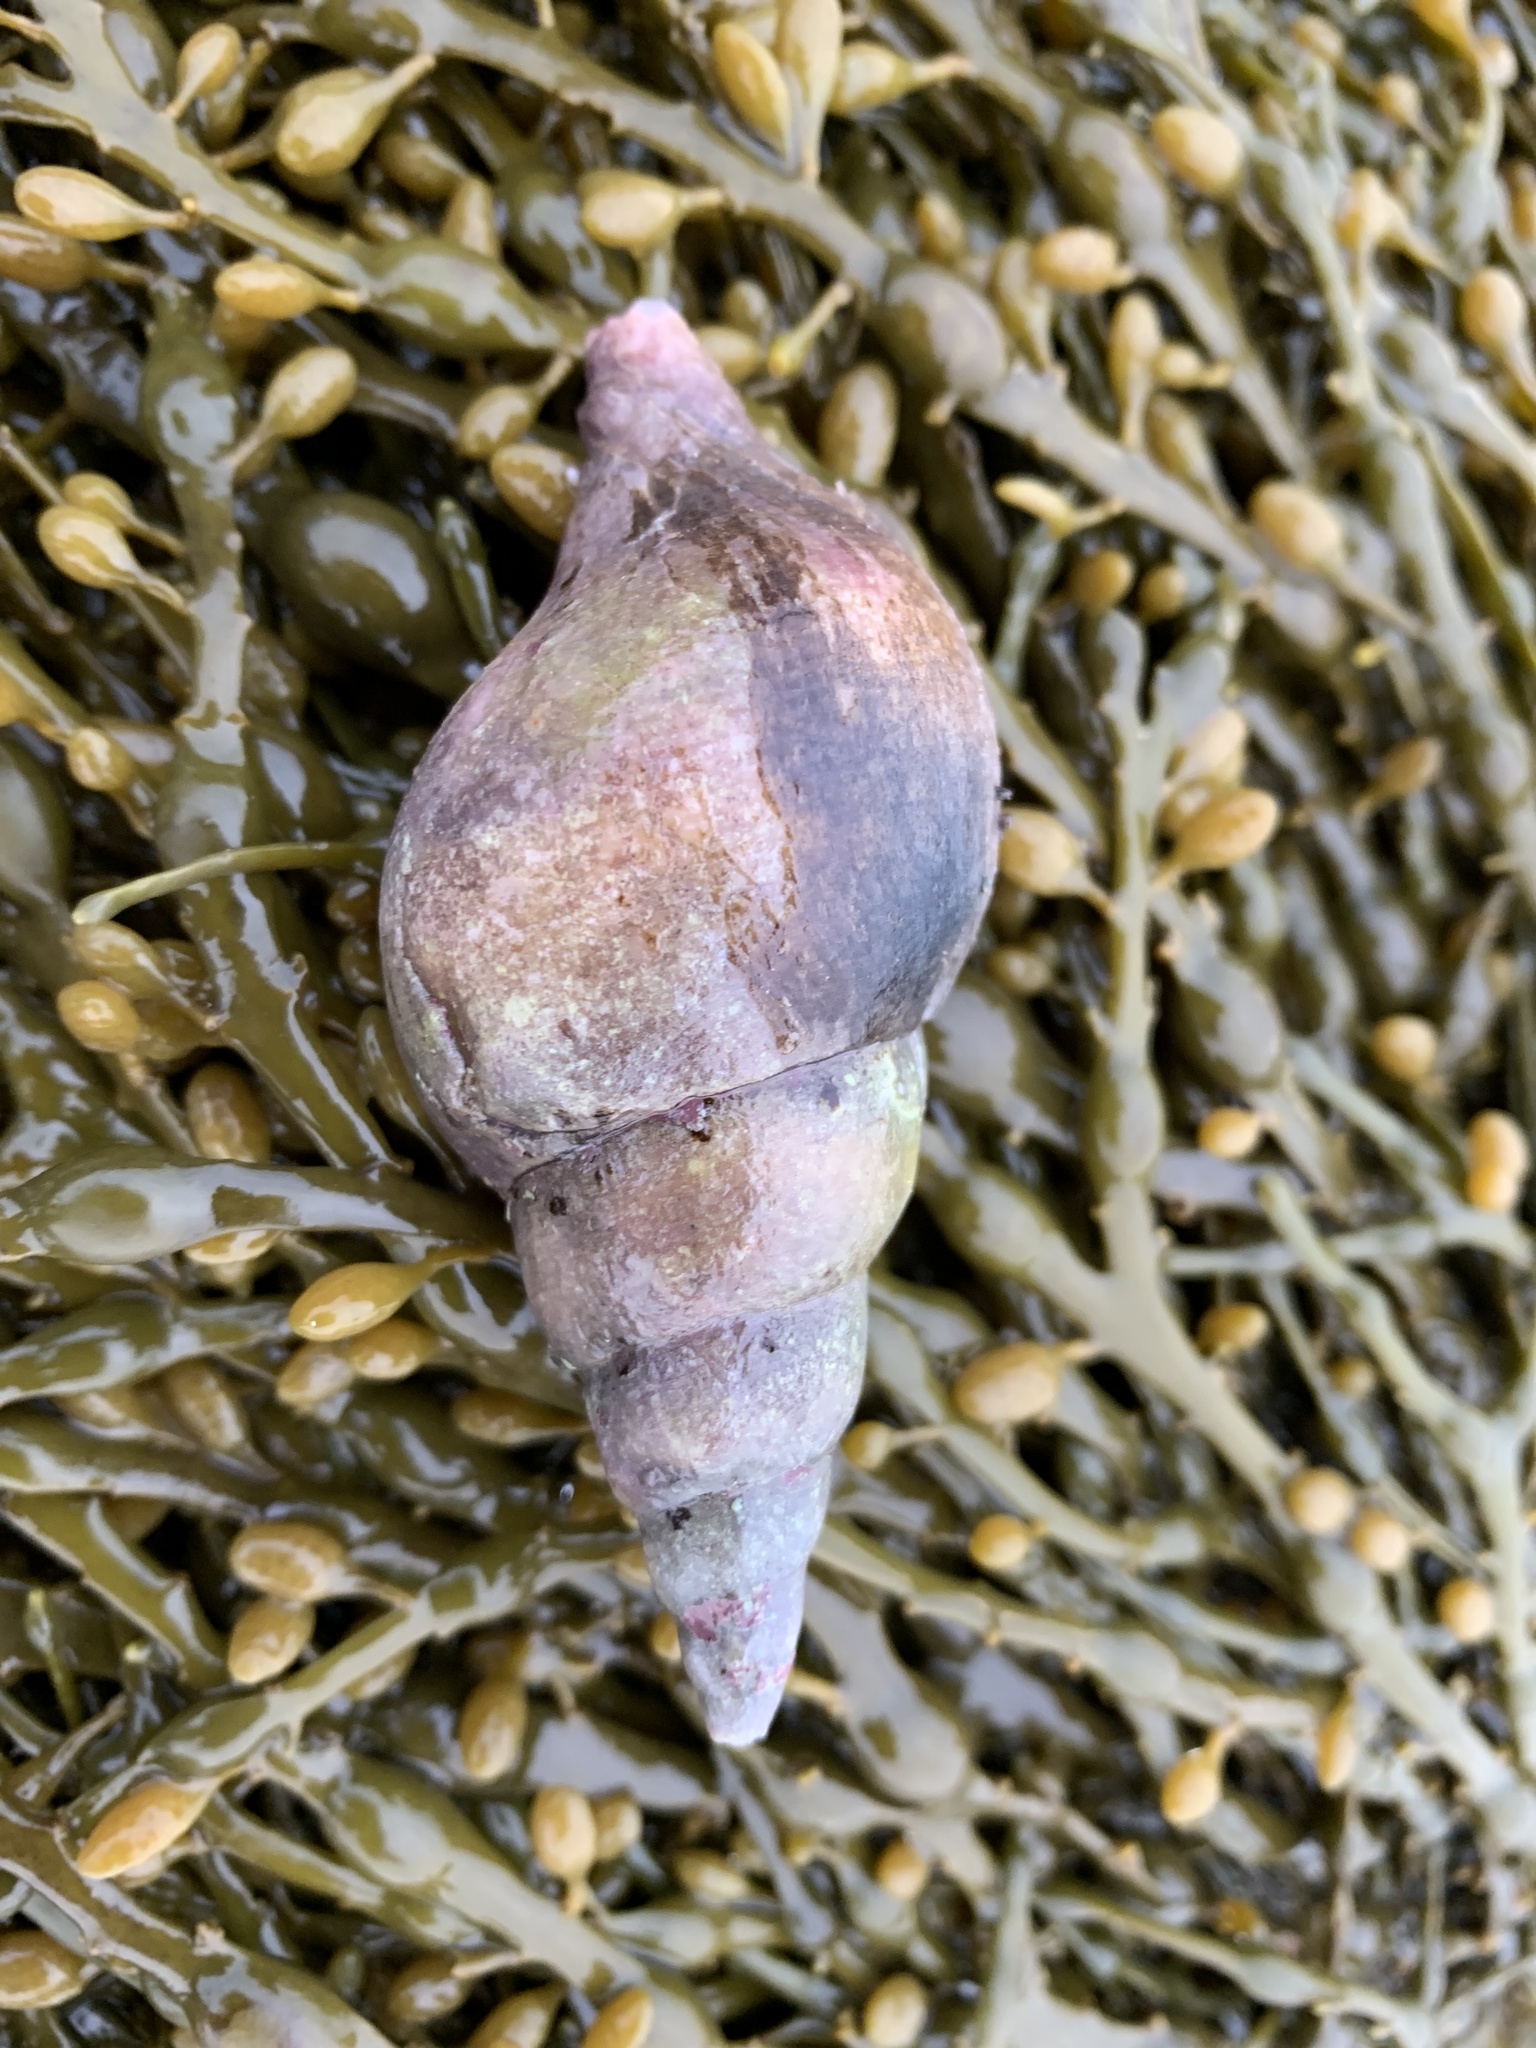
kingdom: Animalia
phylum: Mollusca
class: Gastropoda
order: Neogastropoda
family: Colidae
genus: Colus
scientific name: Colus stimpsoni
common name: Stimpson's colus
